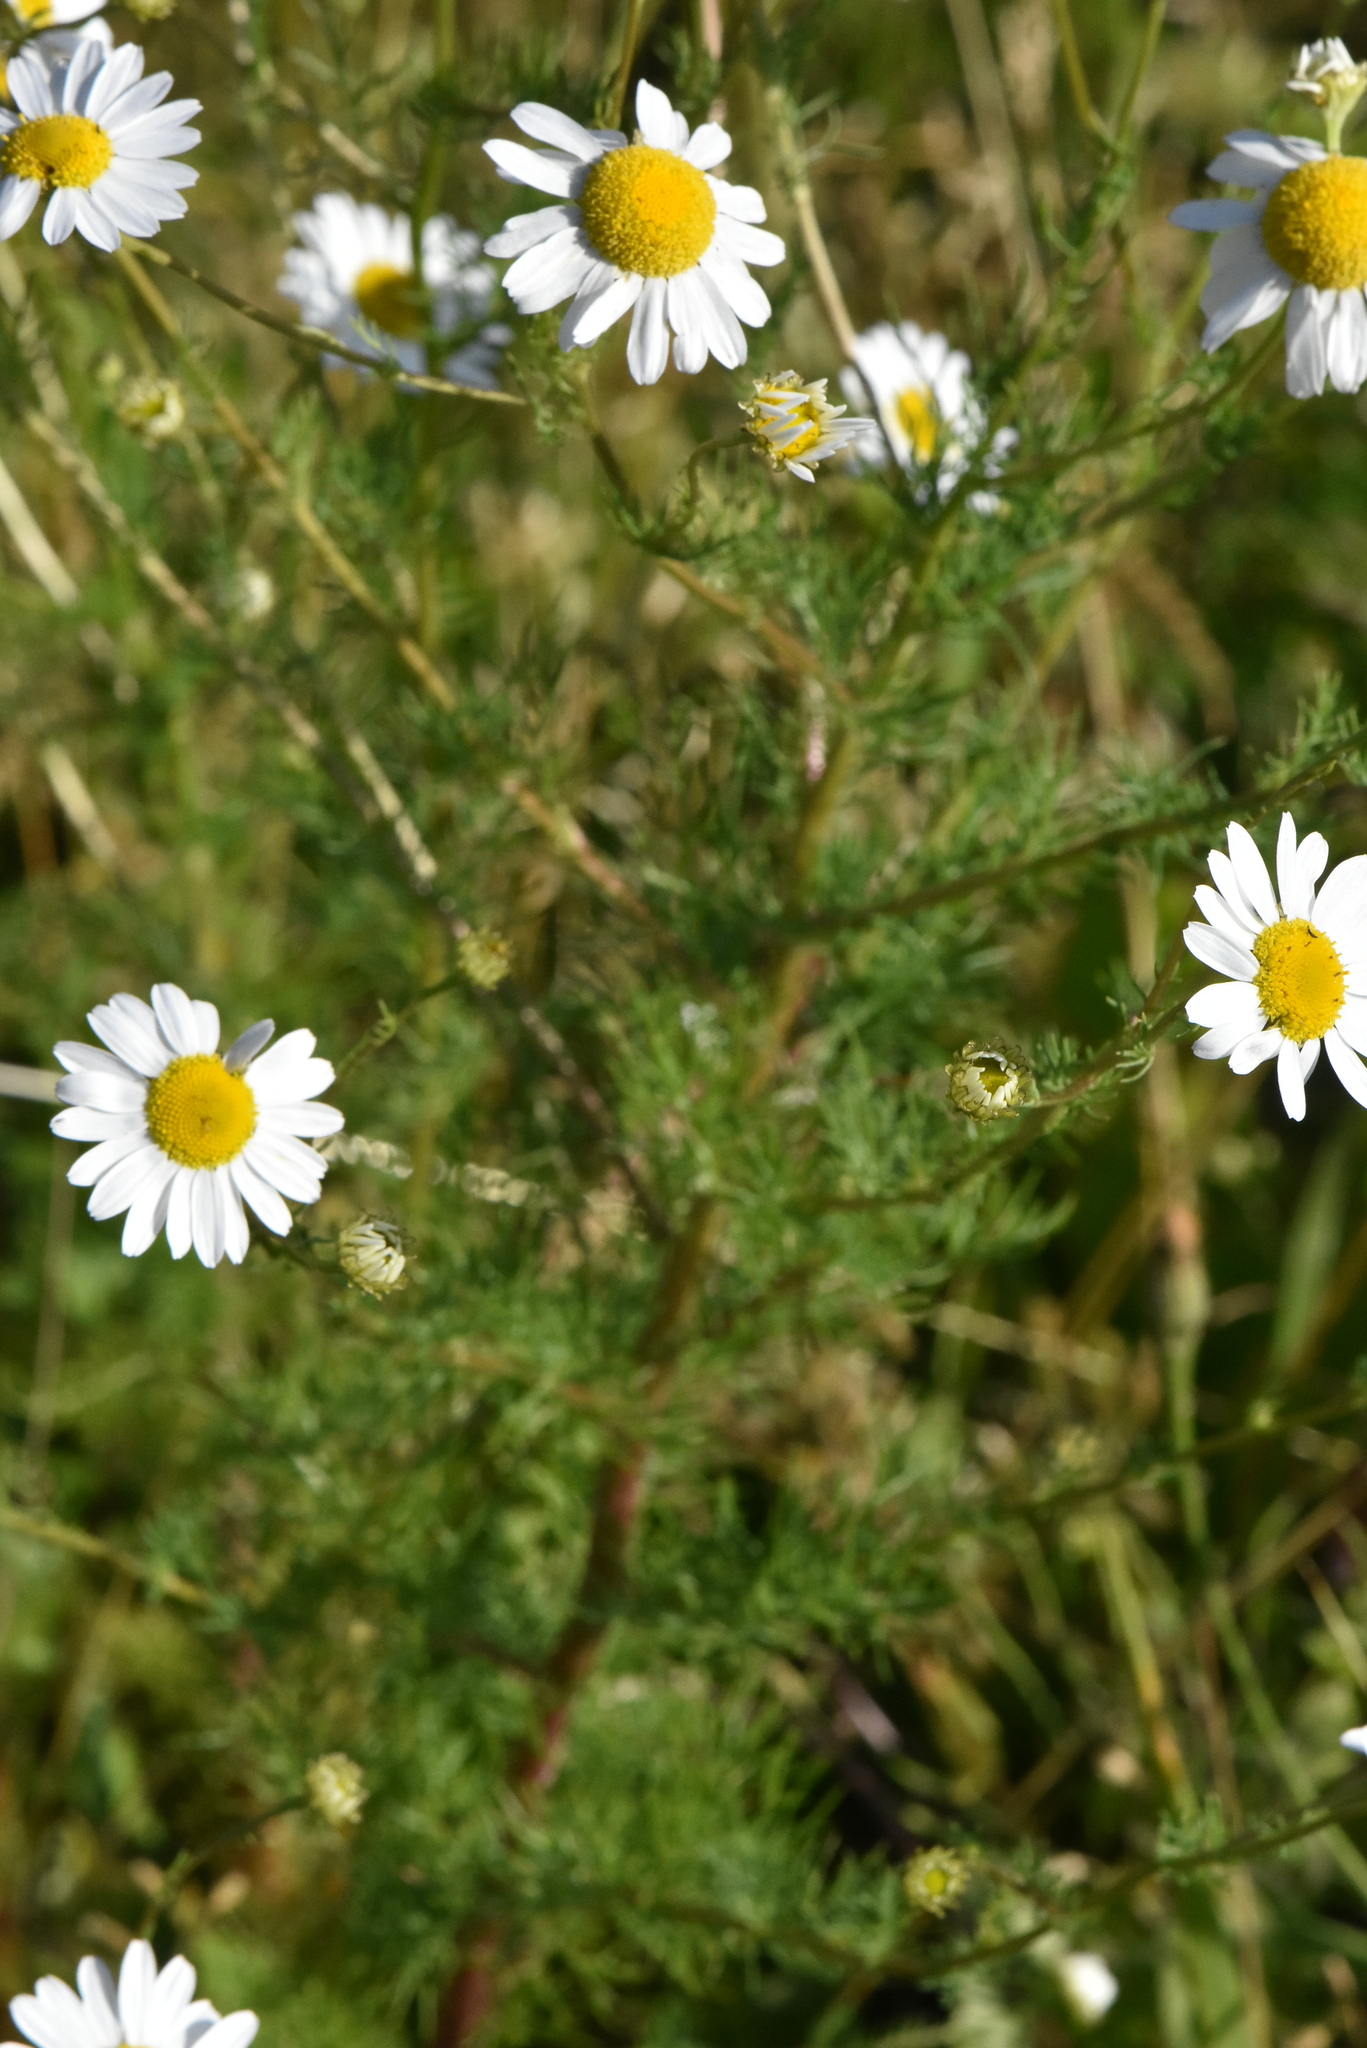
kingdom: Plantae
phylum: Tracheophyta
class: Magnoliopsida
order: Asterales
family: Asteraceae
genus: Tripleurospermum
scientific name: Tripleurospermum inodorum
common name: Scentless mayweed
